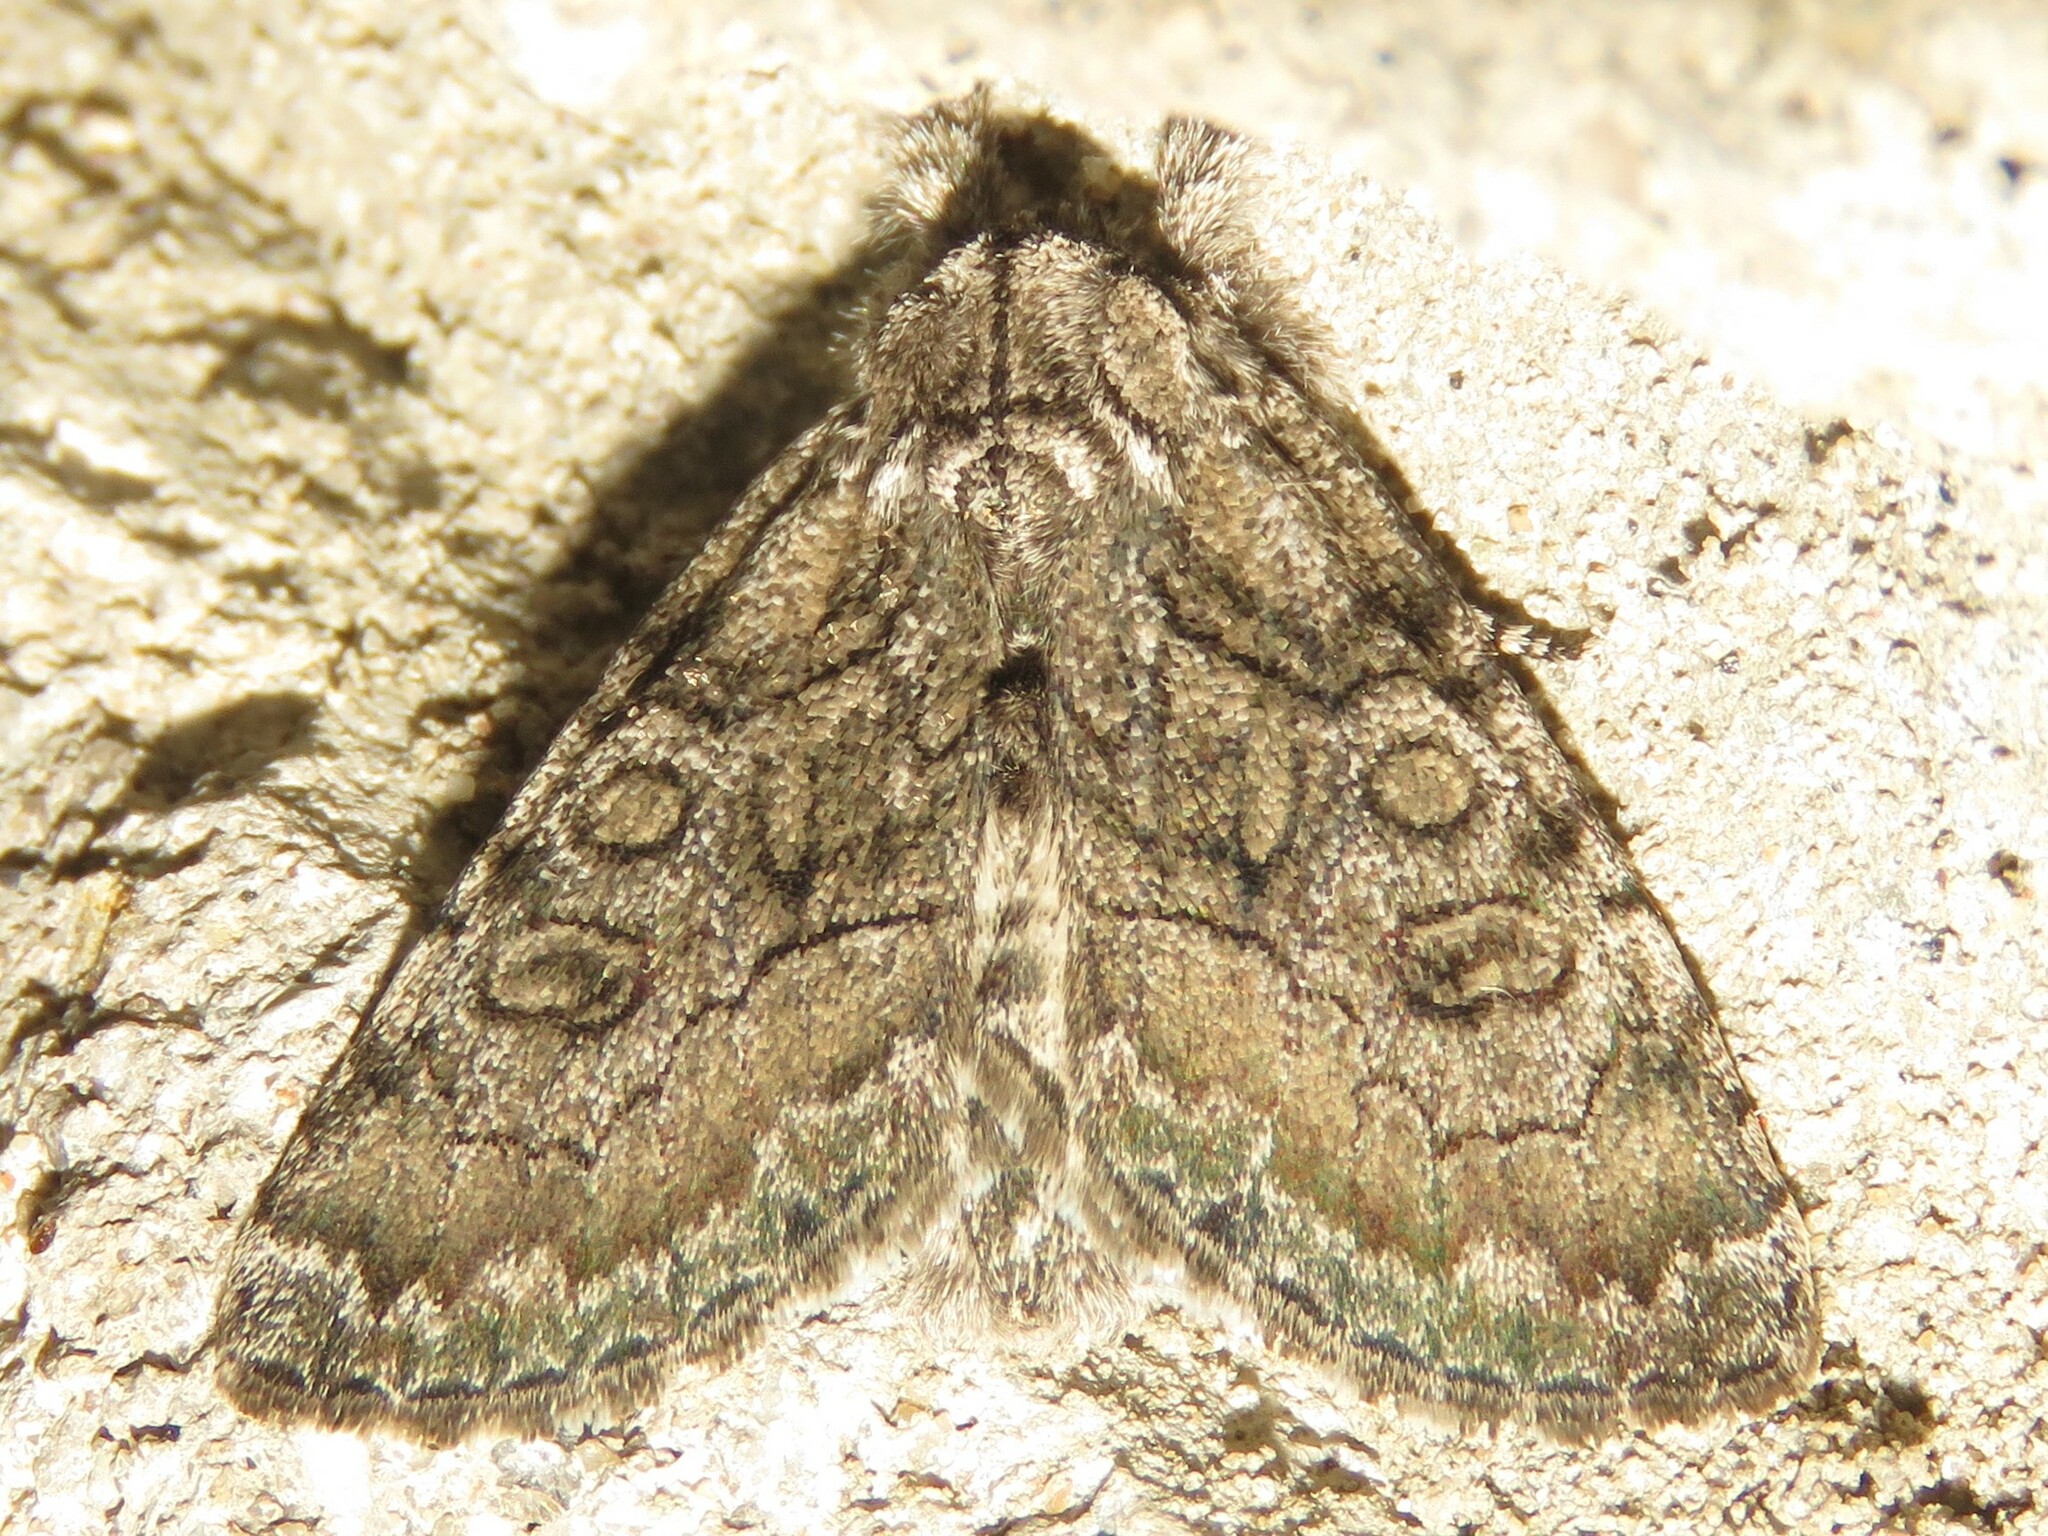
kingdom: Animalia
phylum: Arthropoda
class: Insecta
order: Lepidoptera
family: Noctuidae
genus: Raphia
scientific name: Raphia frater
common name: Brother
